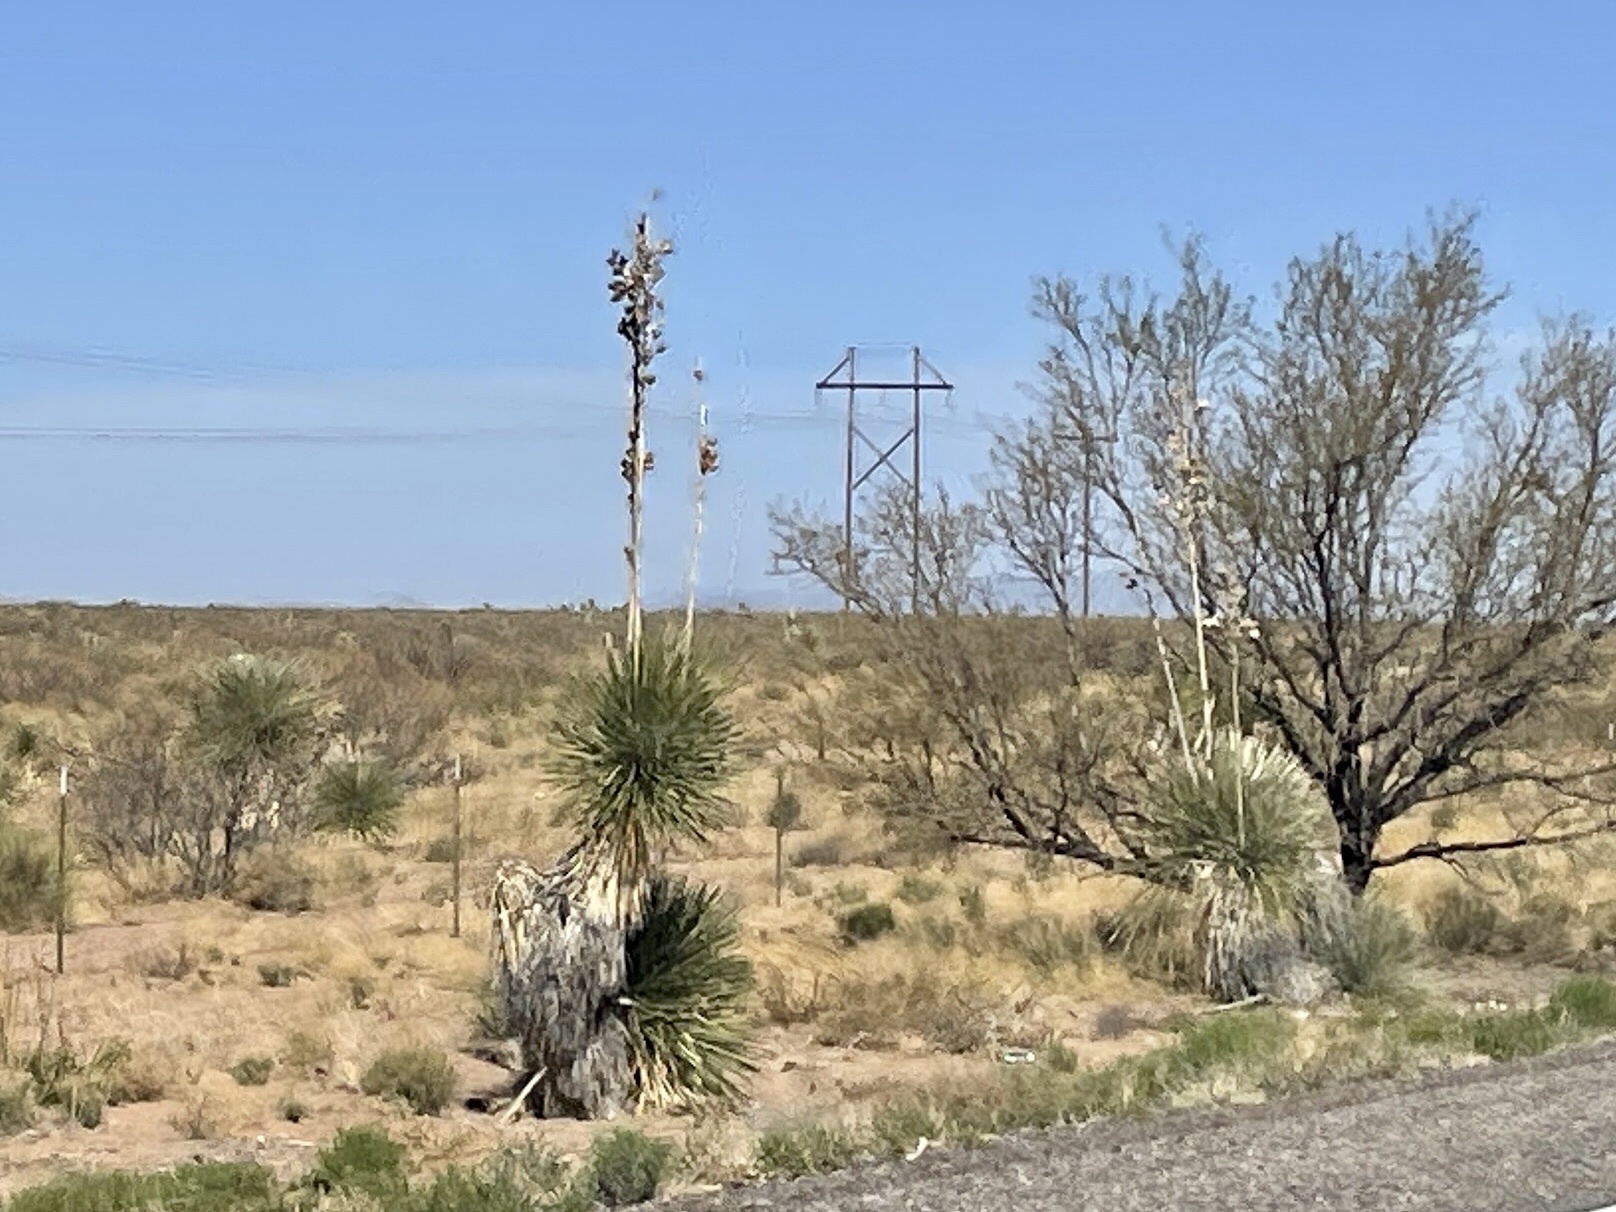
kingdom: Plantae
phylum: Tracheophyta
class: Liliopsida
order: Asparagales
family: Asparagaceae
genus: Yucca
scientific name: Yucca elata
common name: Palmella
